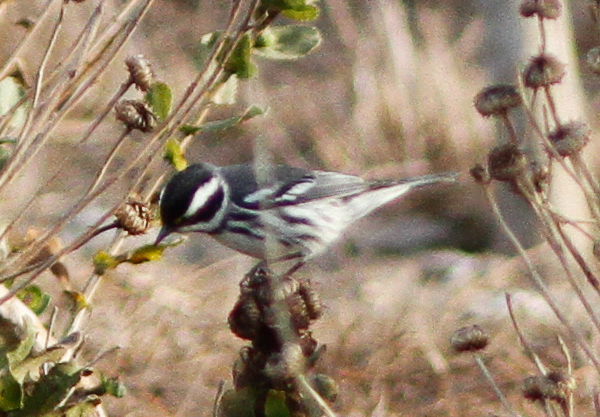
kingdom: Animalia
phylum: Chordata
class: Aves
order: Passeriformes
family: Parulidae
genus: Setophaga
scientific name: Setophaga nigrescens
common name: Black-throated gray warbler
